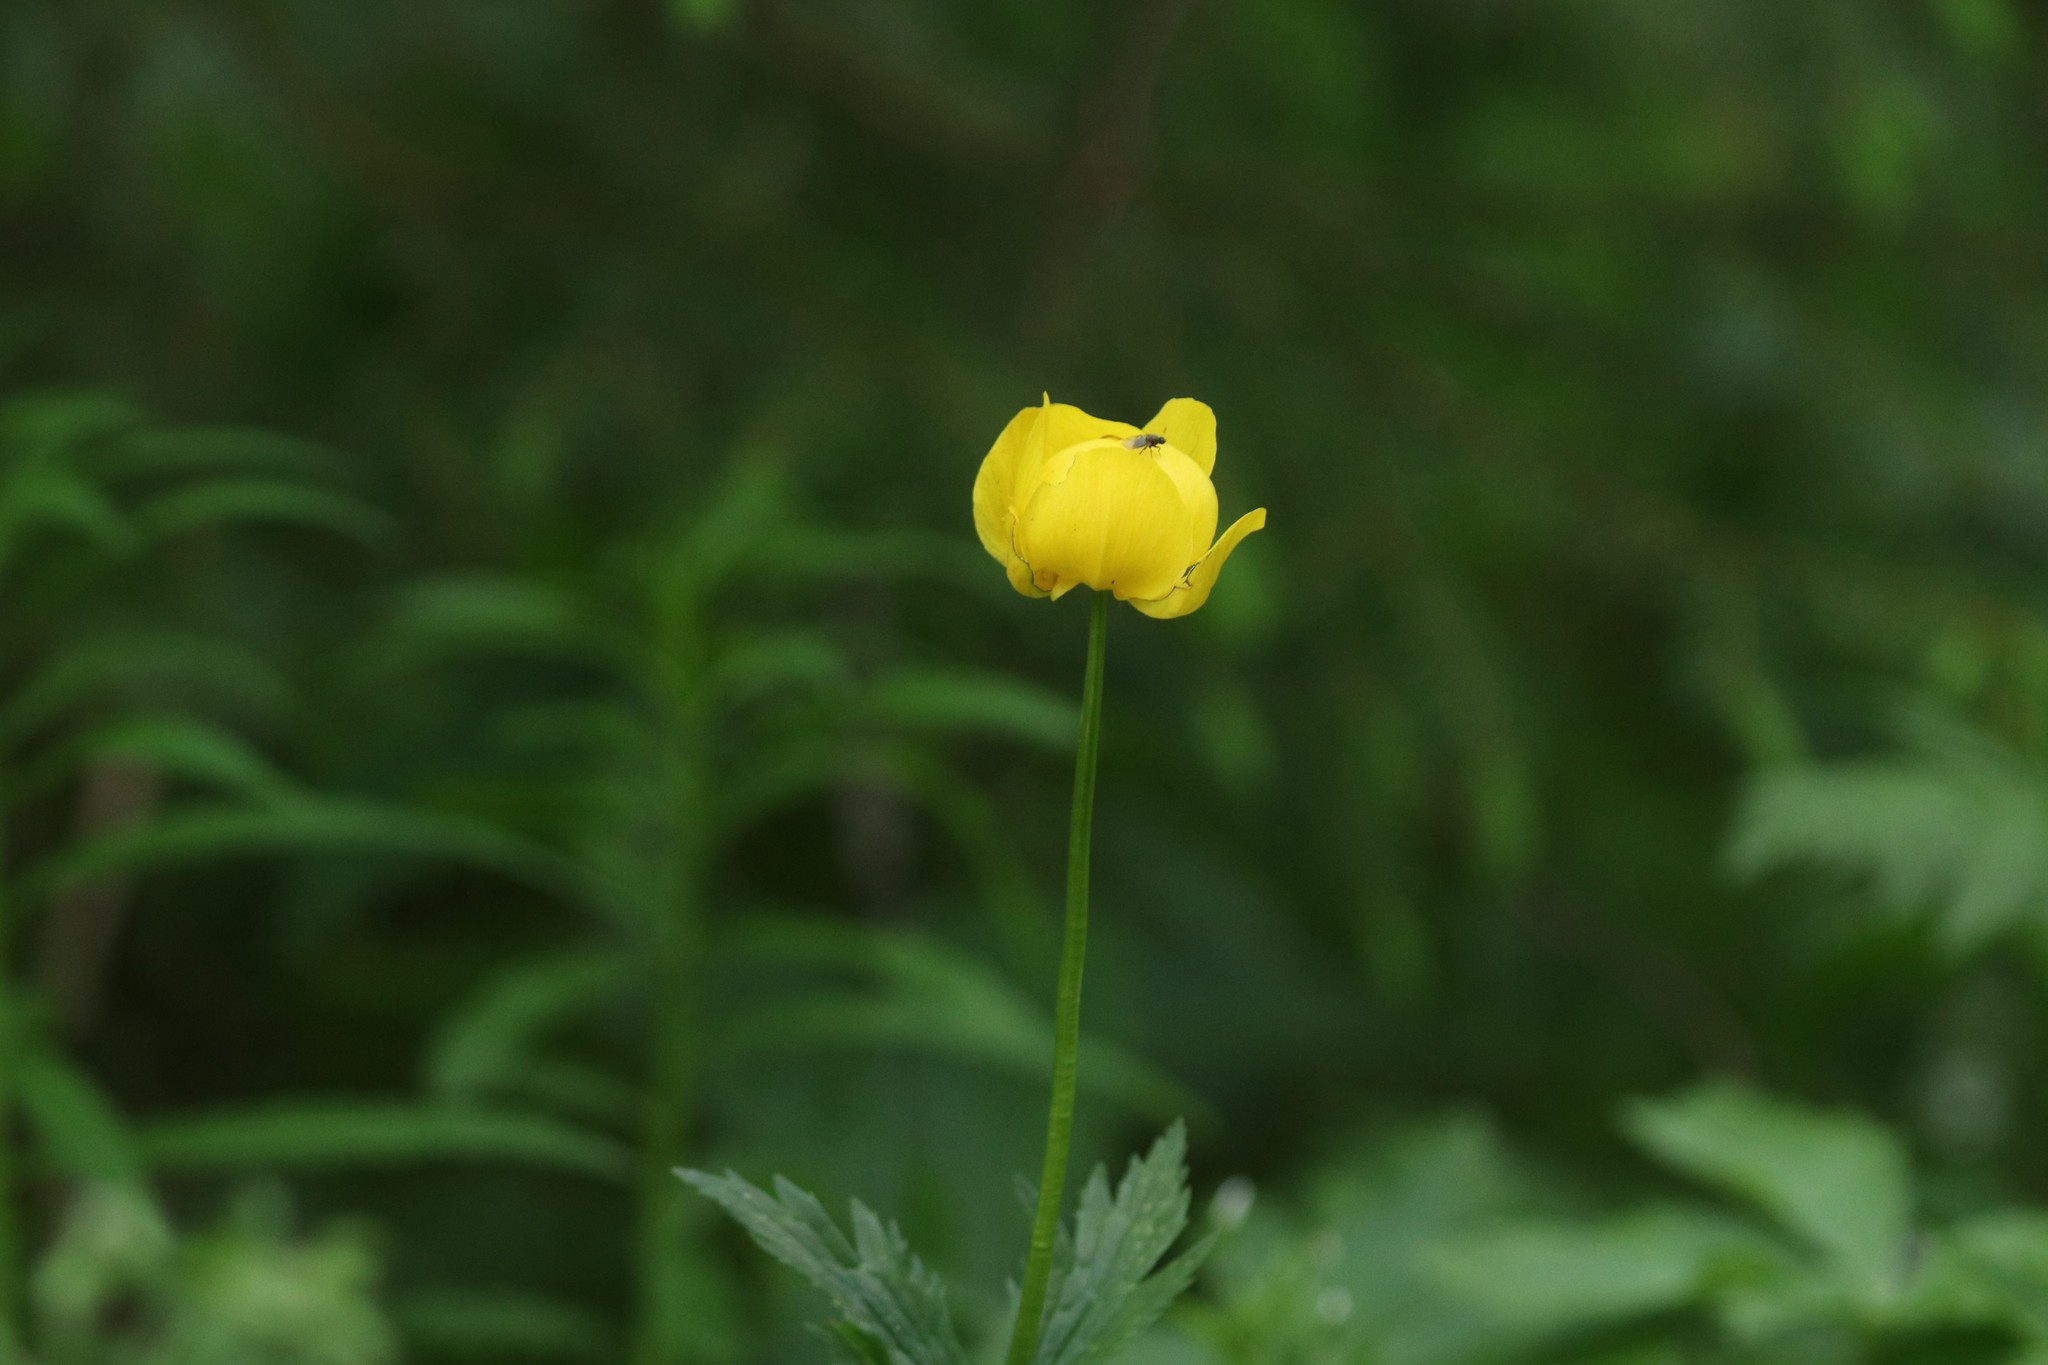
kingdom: Plantae
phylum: Tracheophyta
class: Magnoliopsida
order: Ranunculales
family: Ranunculaceae
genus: Trollius
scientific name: Trollius europaeus
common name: European globeflower
